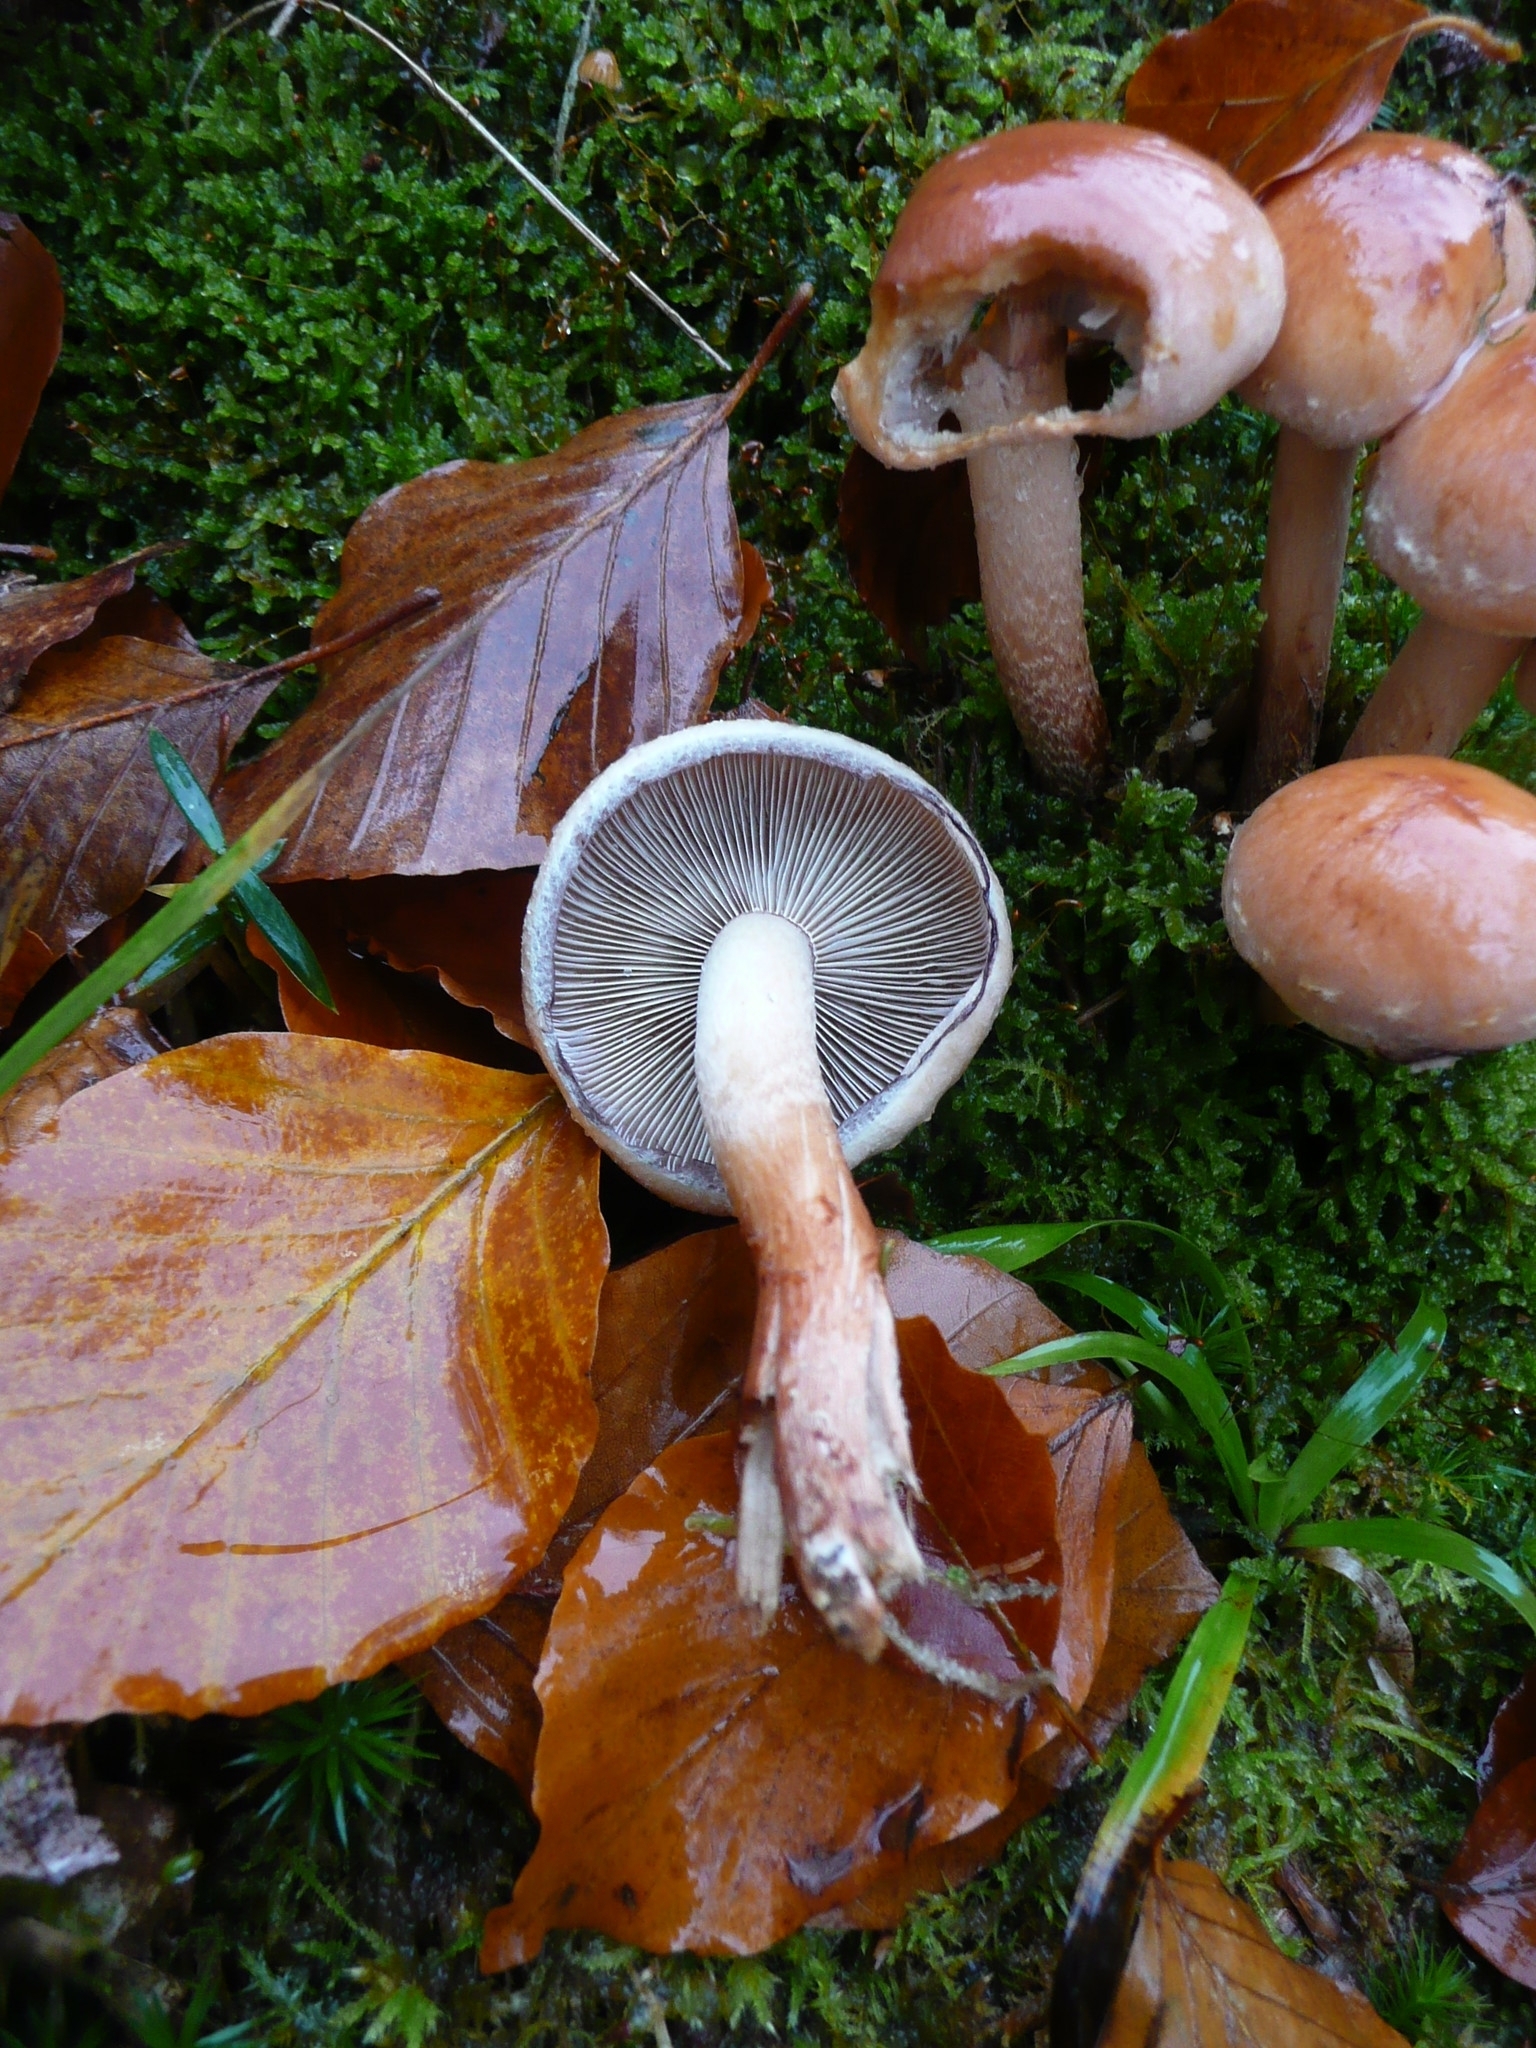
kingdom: Fungi
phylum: Basidiomycota
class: Agaricomycetes
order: Agaricales
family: Strophariaceae
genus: Hypholoma
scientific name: Hypholoma lateritium
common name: Brick caps
